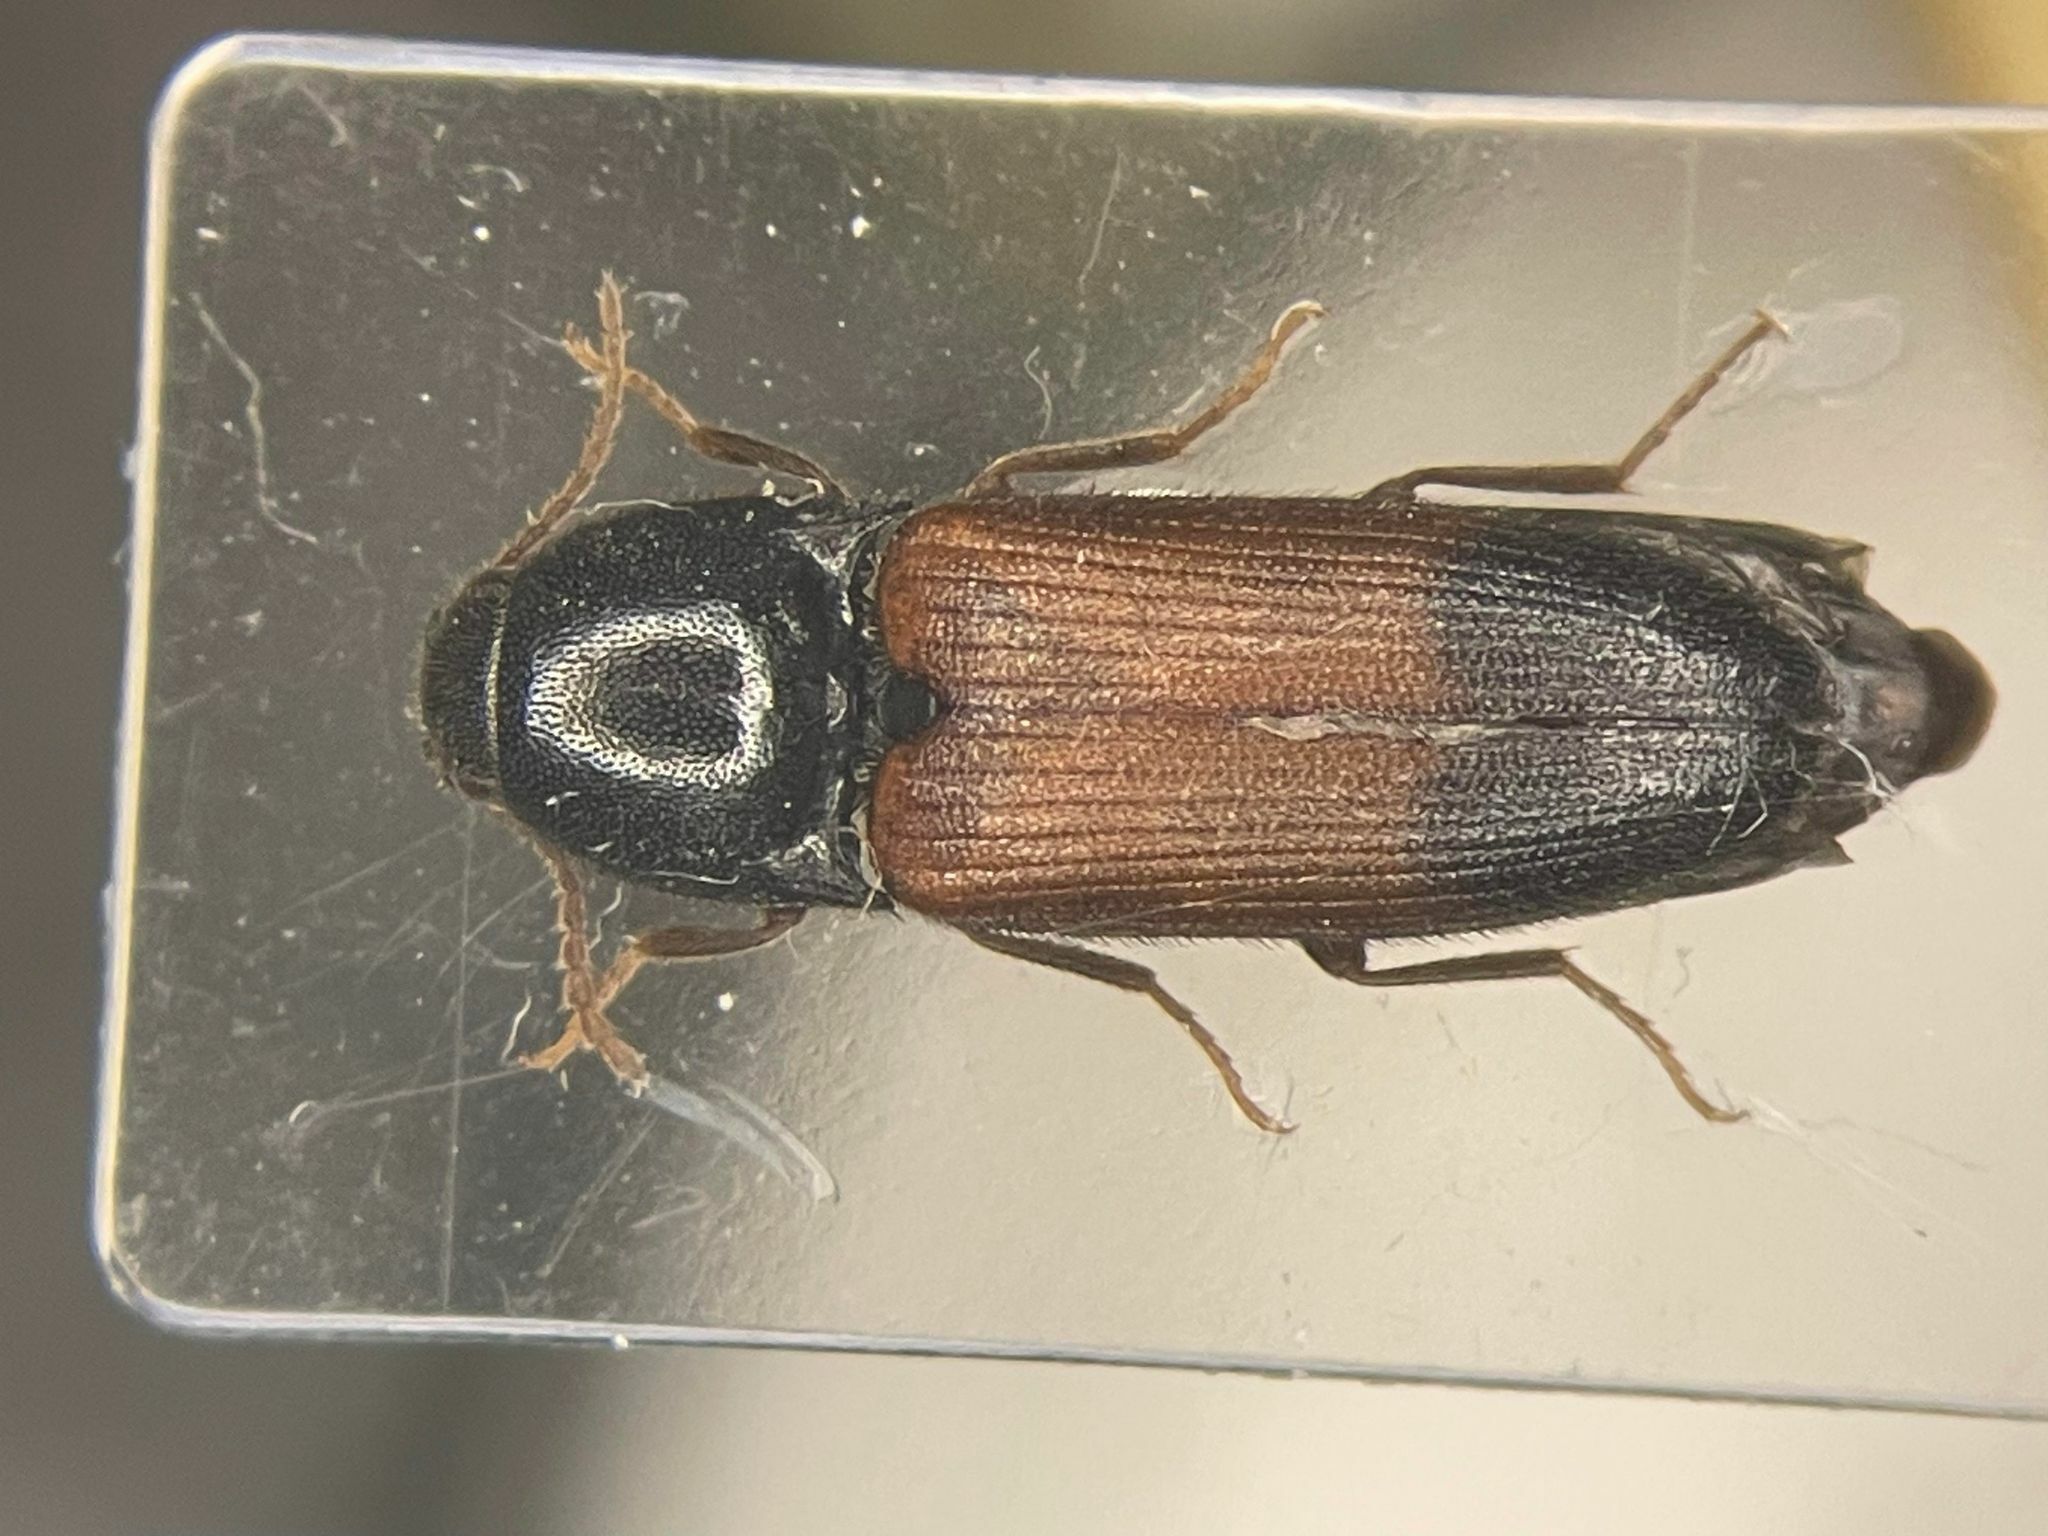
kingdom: Animalia
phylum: Arthropoda
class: Insecta
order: Coleoptera
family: Elateridae
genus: Ampedus
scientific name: Ampedus quebecensis
